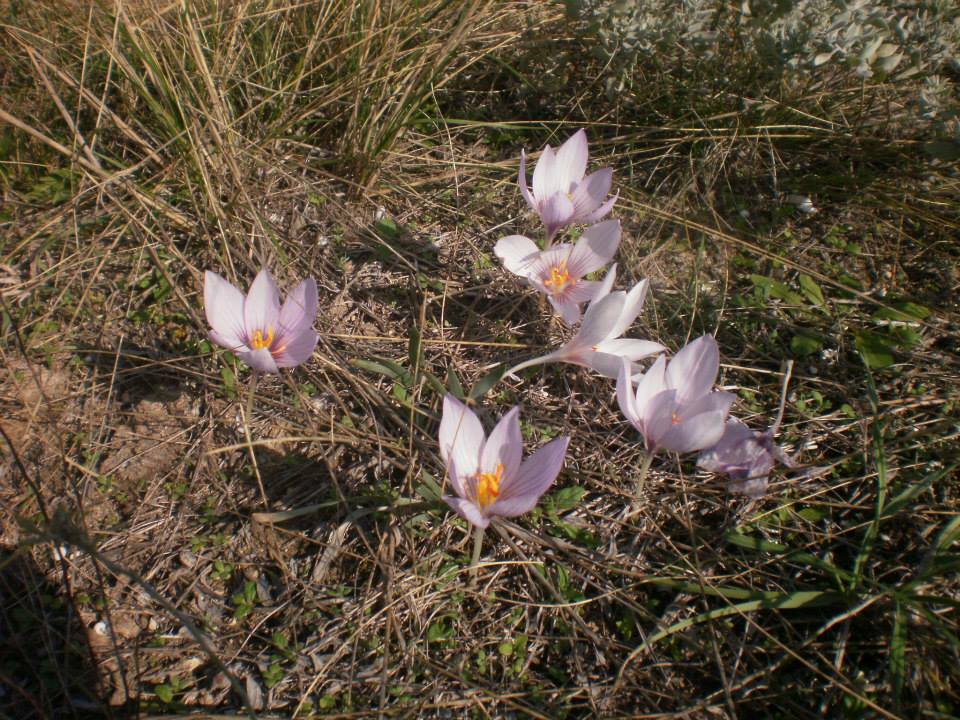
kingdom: Plantae
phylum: Tracheophyta
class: Liliopsida
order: Asparagales
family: Iridaceae
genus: Crocus
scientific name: Crocus pallasii
